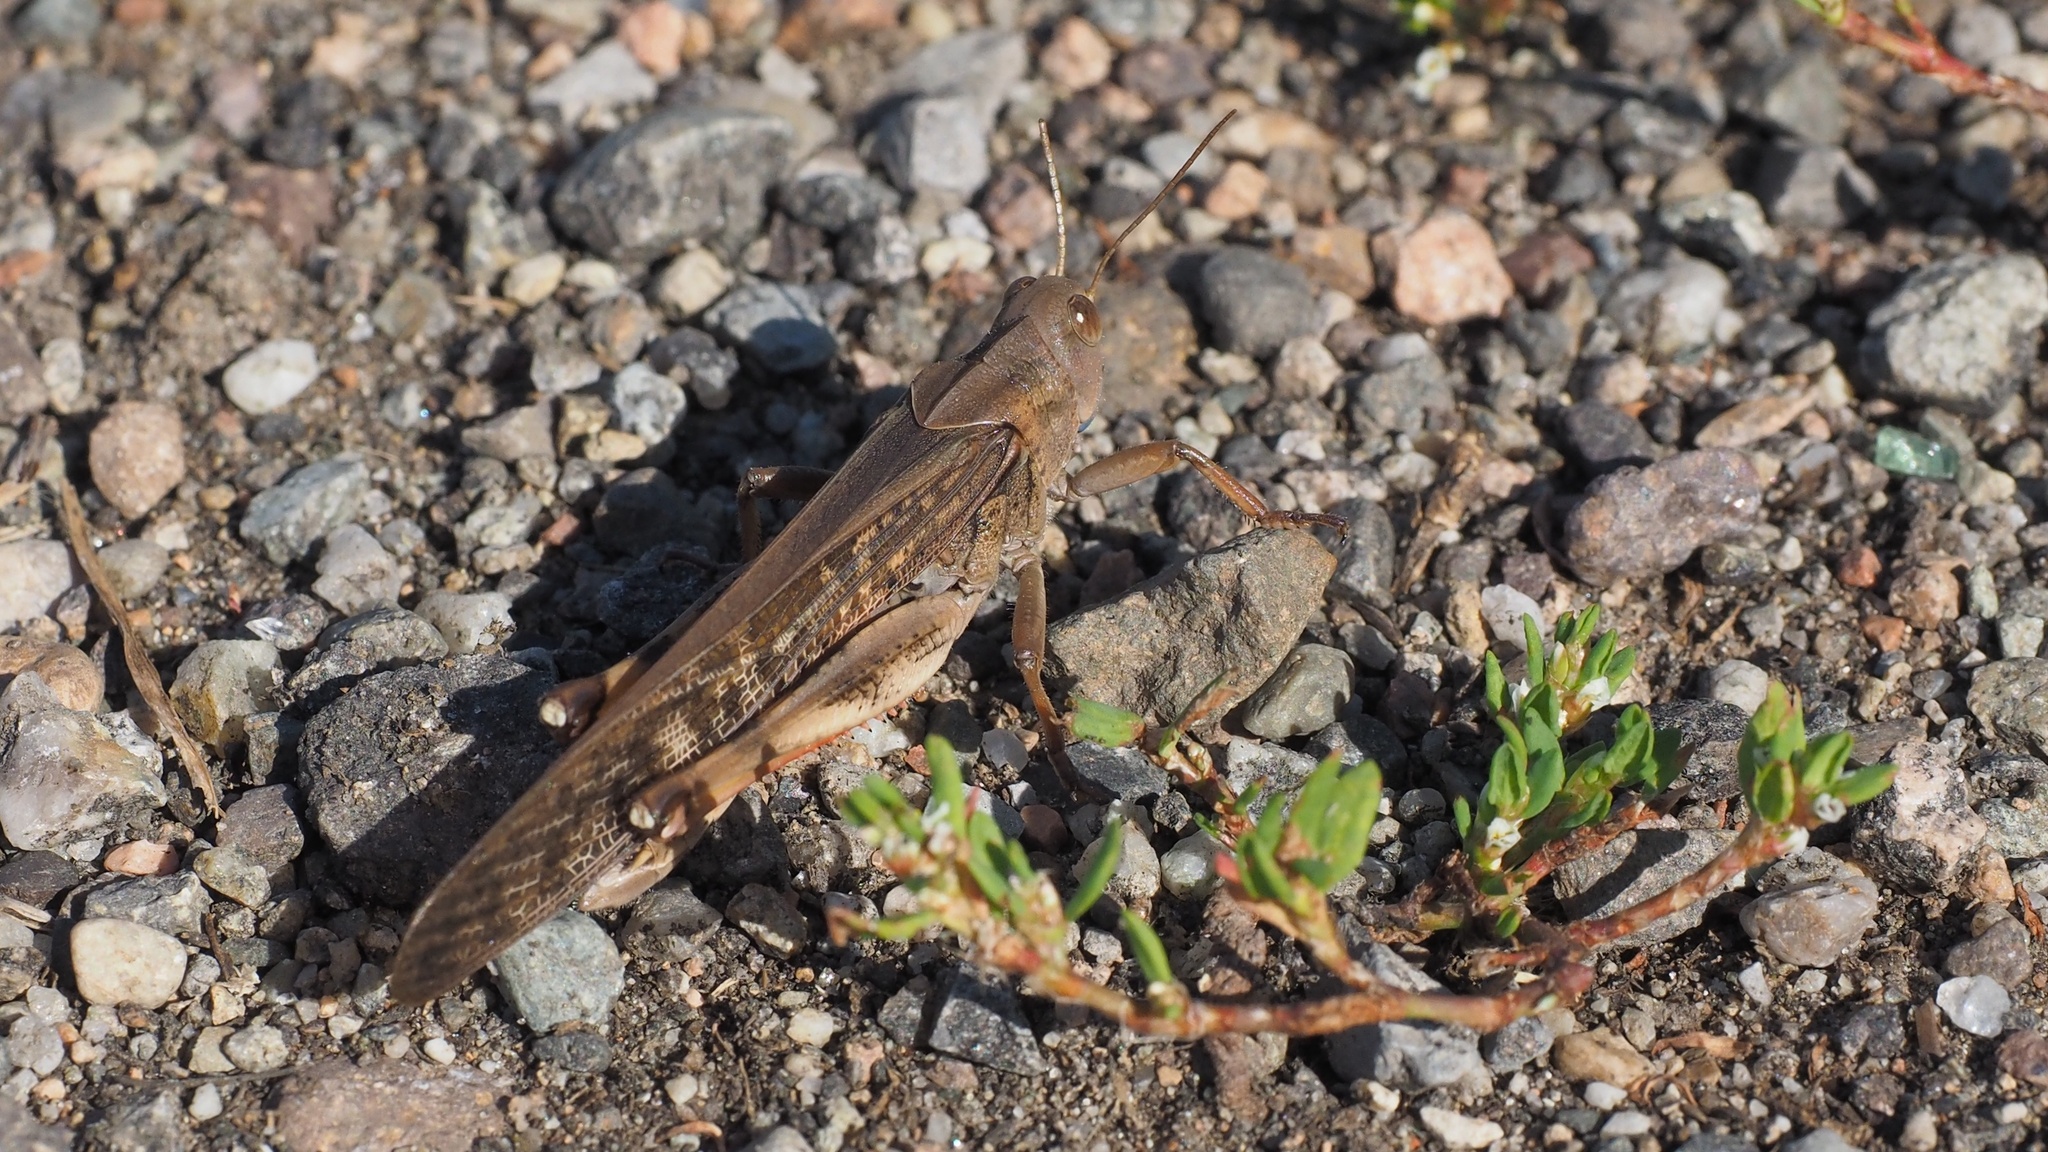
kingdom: Animalia
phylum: Arthropoda
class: Insecta
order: Orthoptera
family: Acrididae
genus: Locusta
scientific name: Locusta migratoria
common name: Migratory locust
